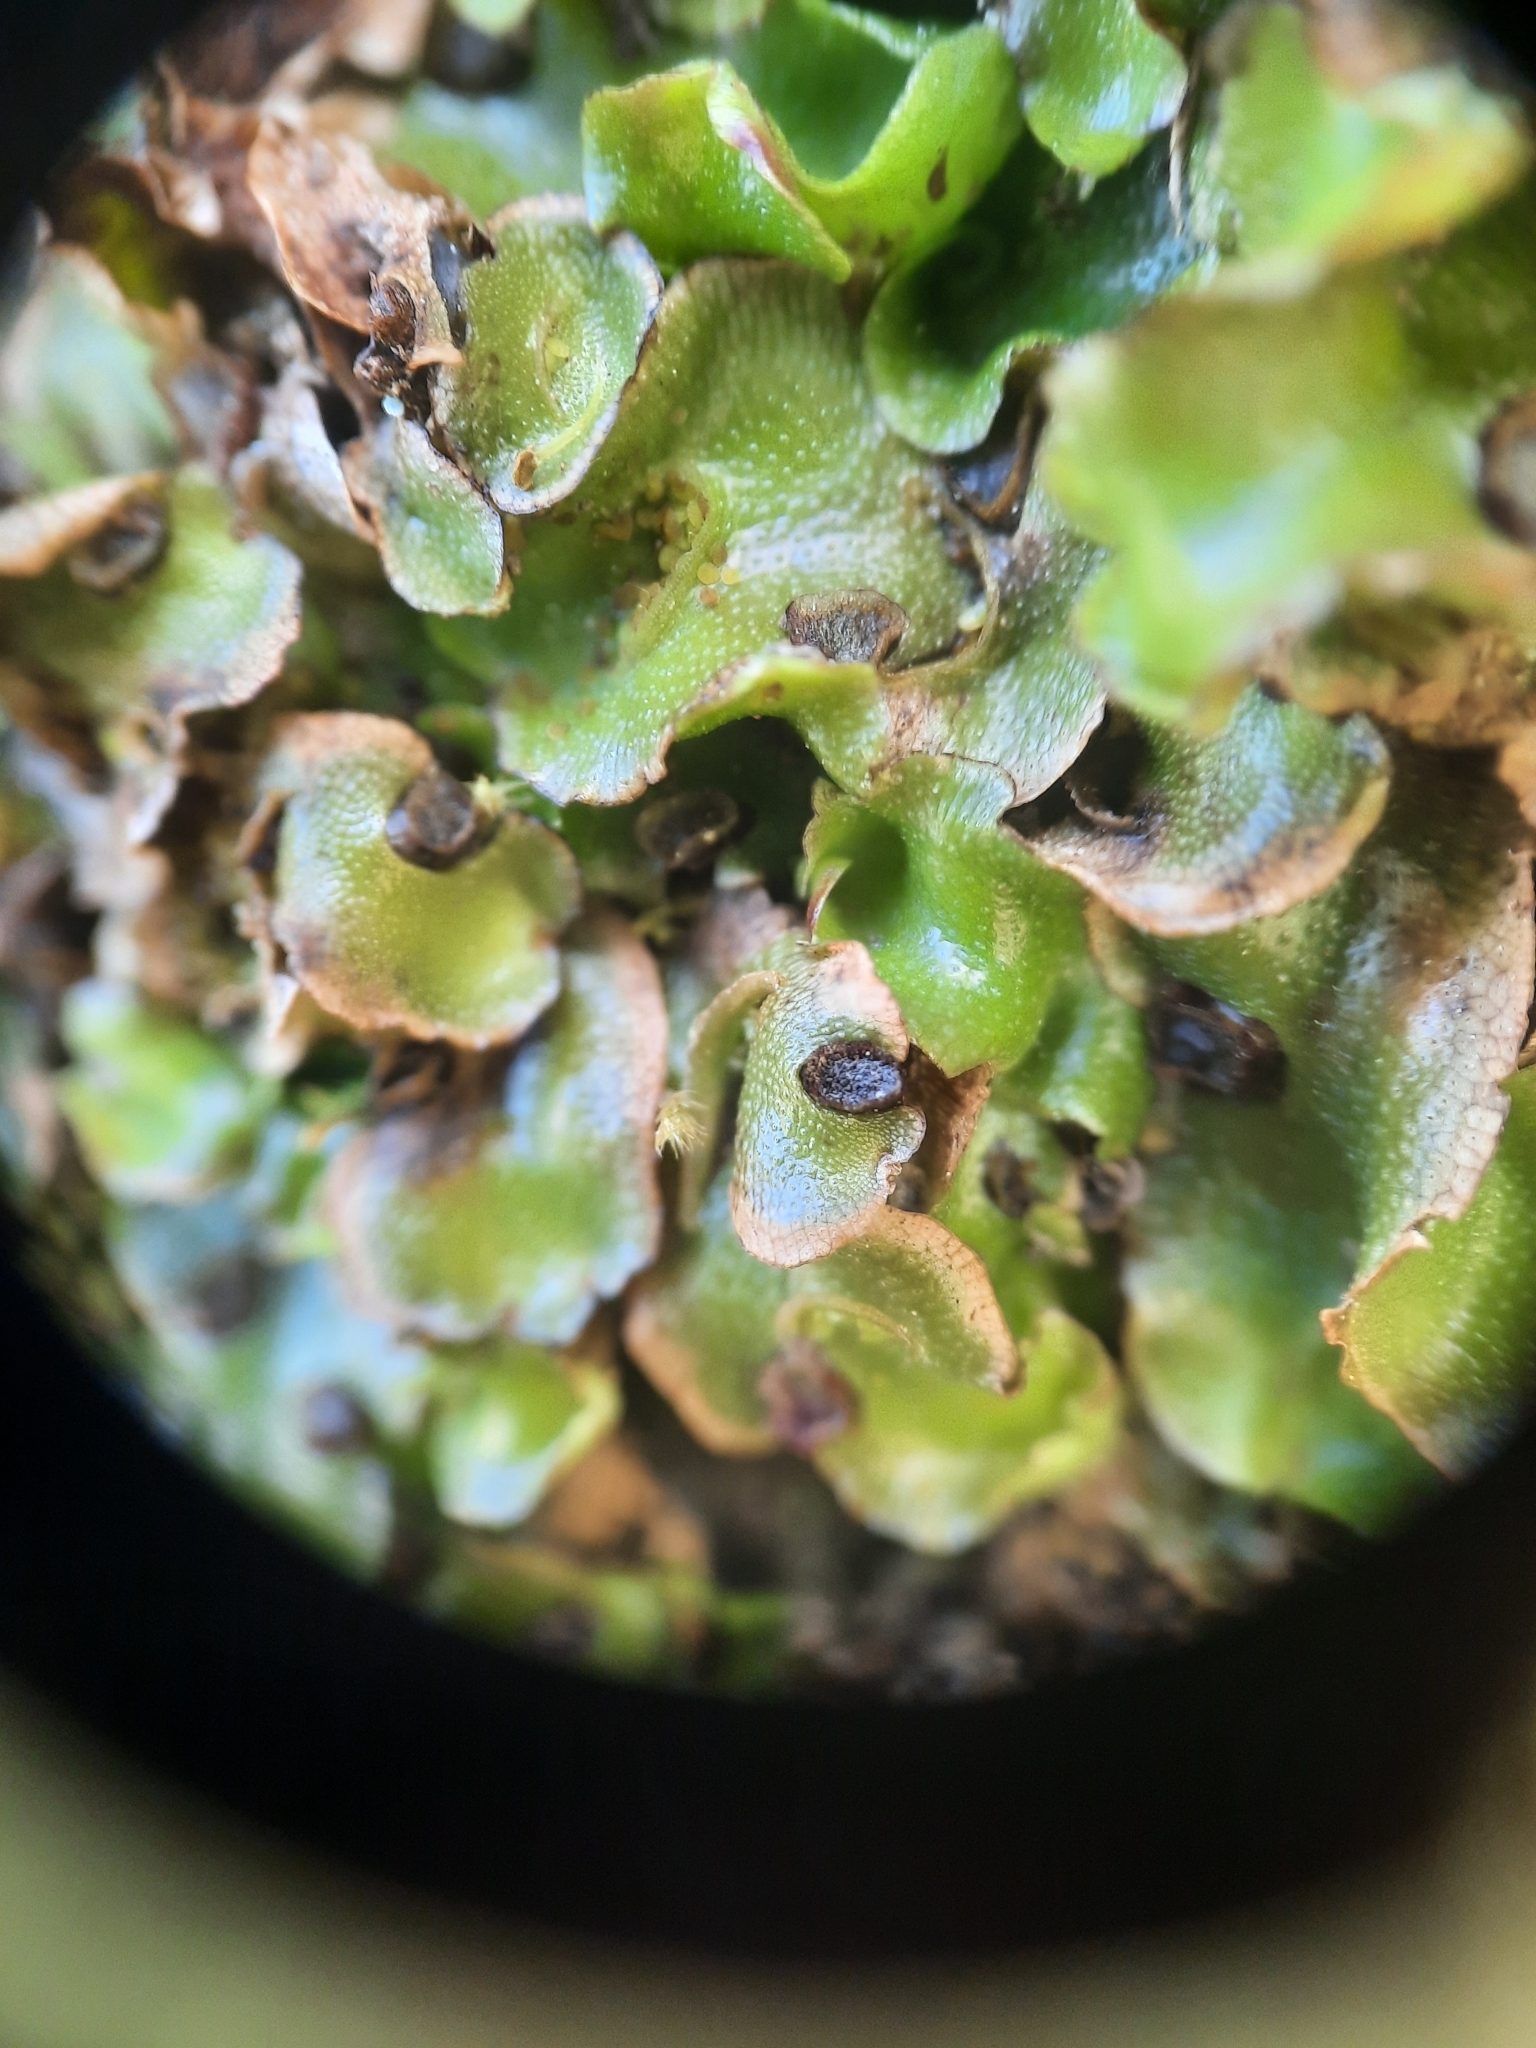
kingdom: Plantae
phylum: Marchantiophyta
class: Marchantiopsida
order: Lunulariales
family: Lunulariaceae
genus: Lunularia
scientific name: Lunularia cruciata
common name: Crescent-cup liverwort
